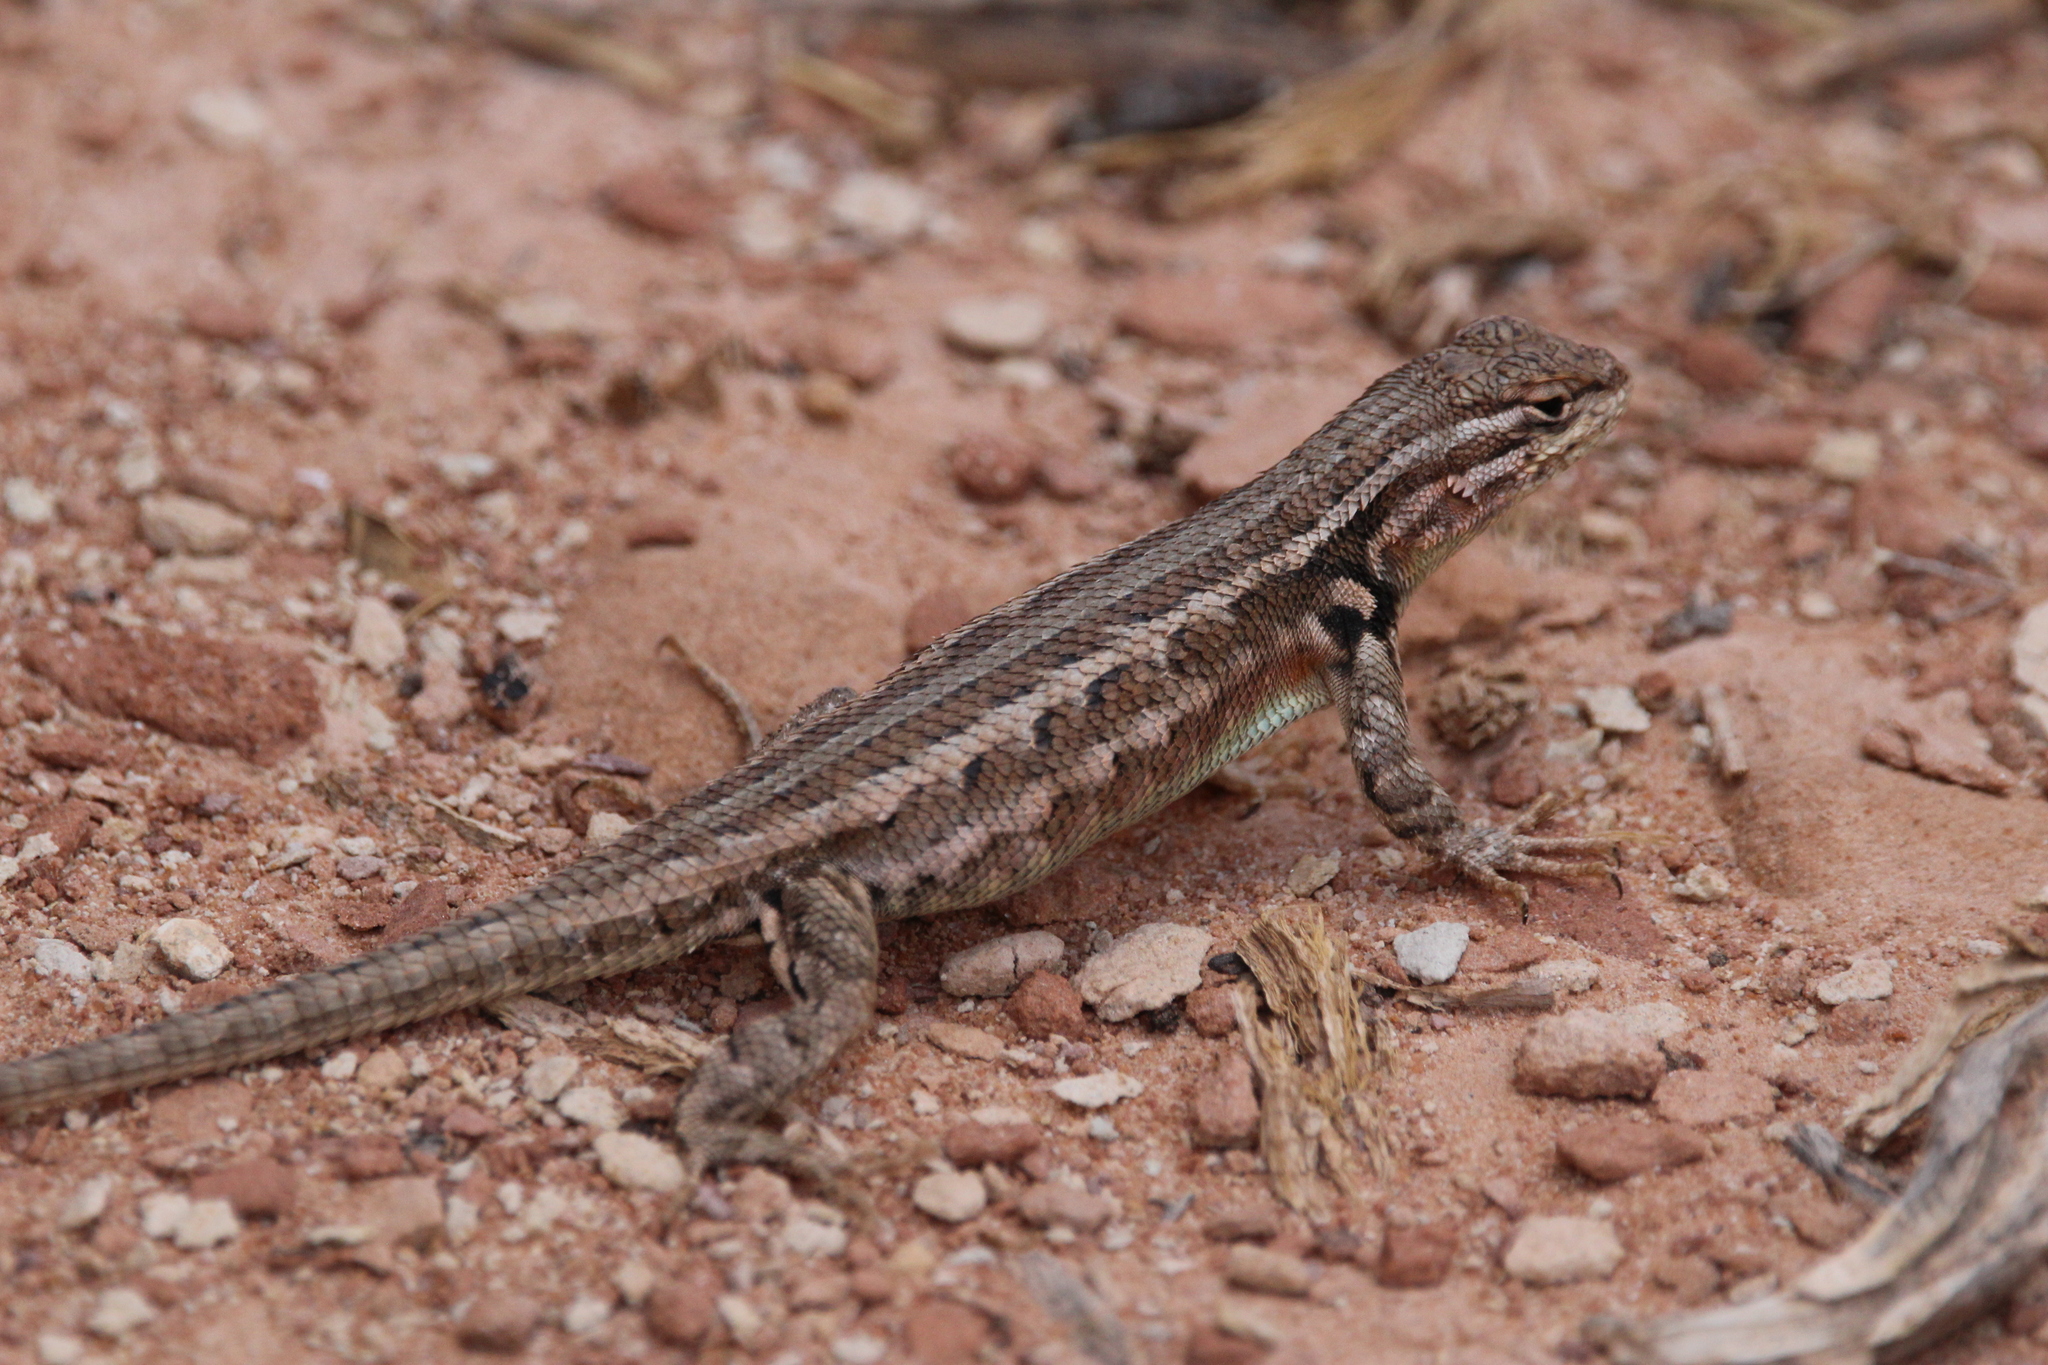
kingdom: Animalia
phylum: Chordata
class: Squamata
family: Phrynosomatidae
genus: Sceloporus
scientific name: Sceloporus graciosus
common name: Sagebrush lizard
